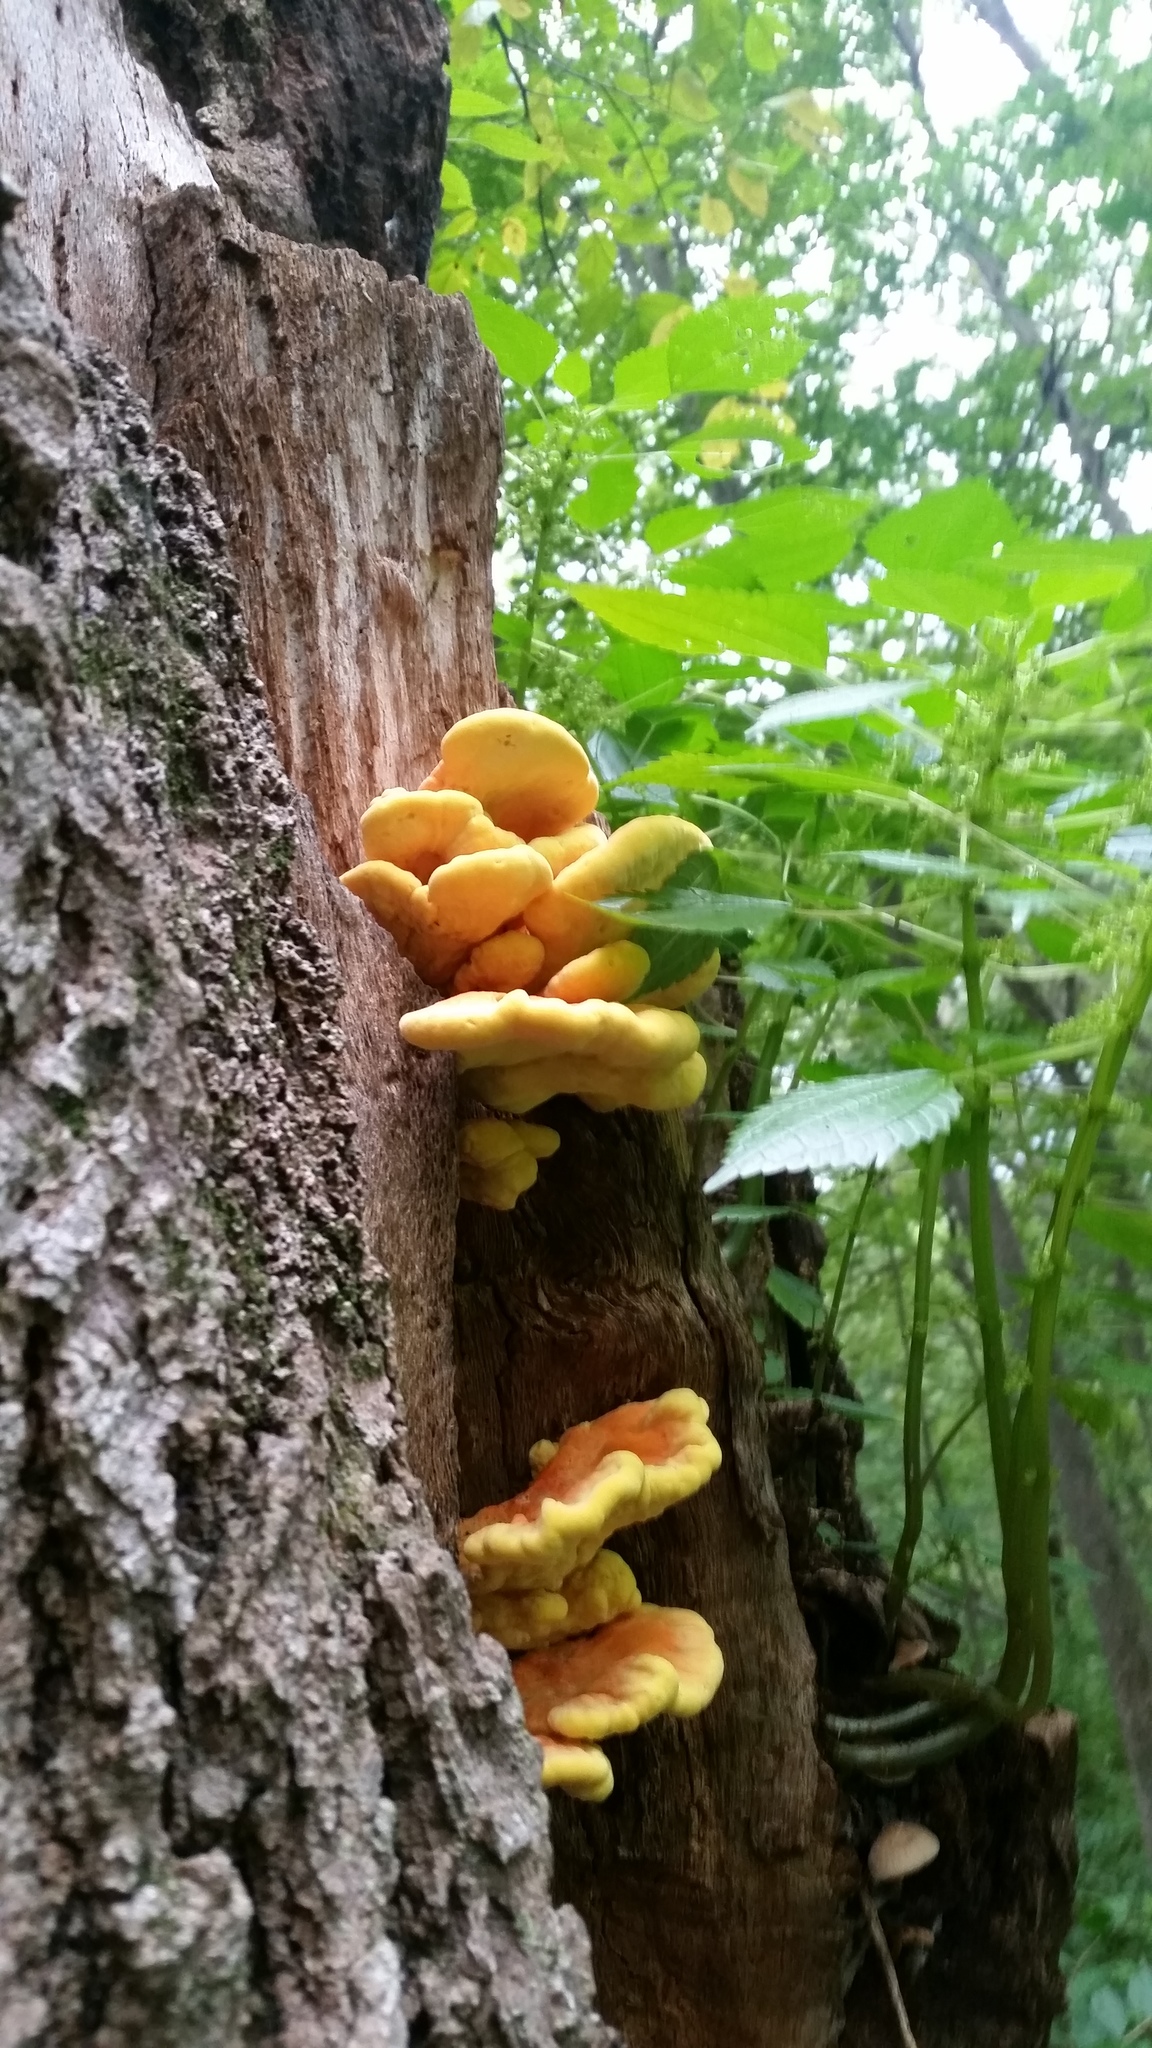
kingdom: Fungi
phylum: Basidiomycota
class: Agaricomycetes
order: Polyporales
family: Laetiporaceae
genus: Laetiporus
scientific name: Laetiporus sulphureus
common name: Chicken of the woods
